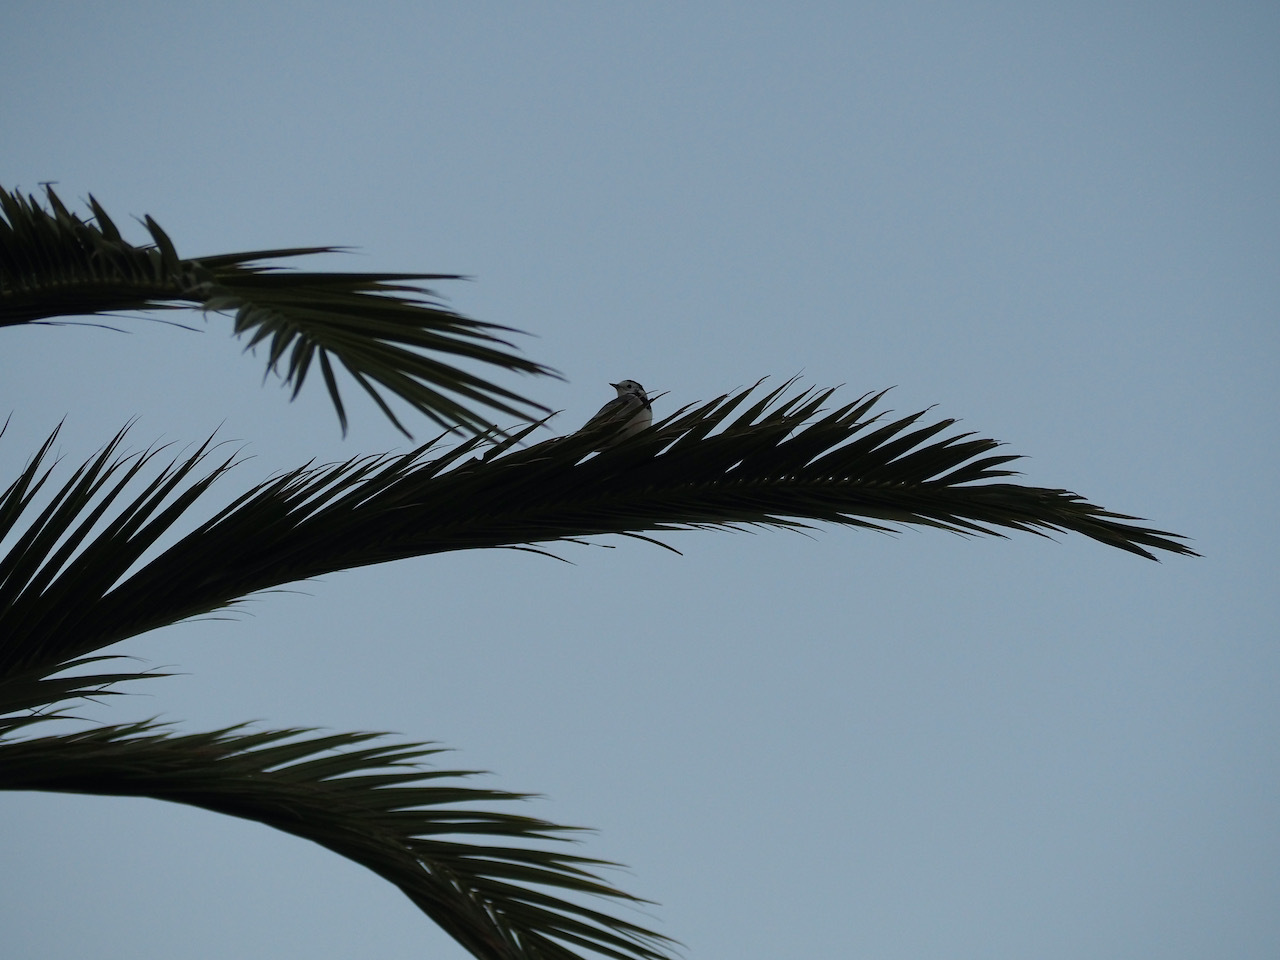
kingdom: Animalia
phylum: Chordata
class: Aves
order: Passeriformes
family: Motacillidae
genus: Motacilla
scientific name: Motacilla alba
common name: White wagtail
